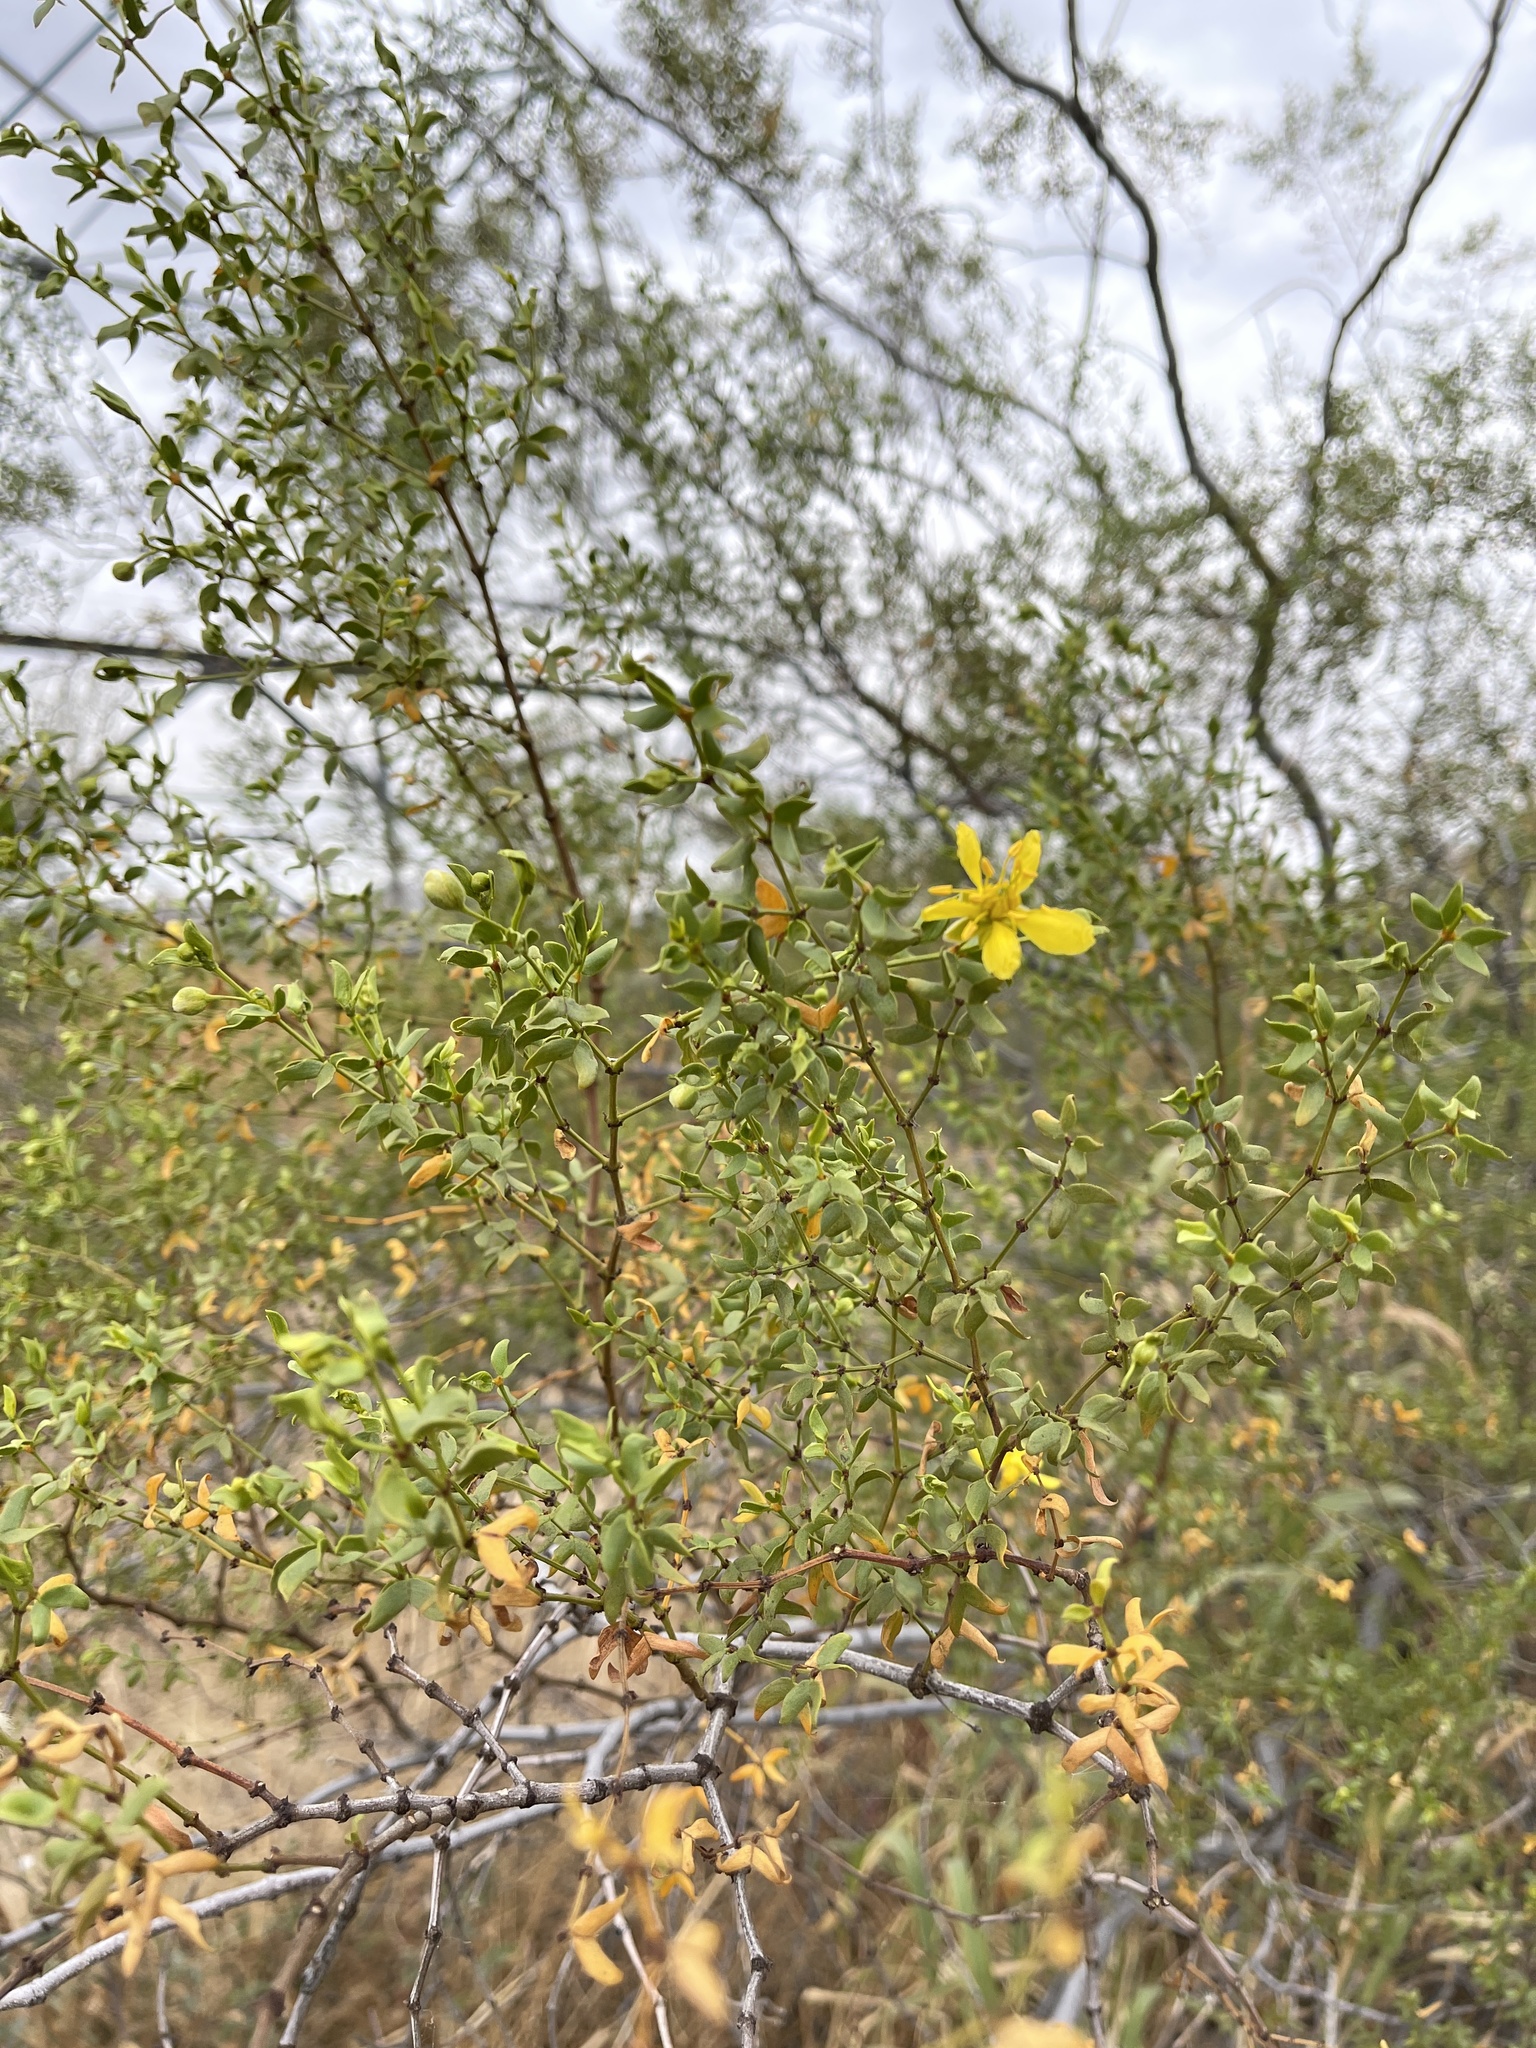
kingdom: Plantae
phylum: Tracheophyta
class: Magnoliopsida
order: Zygophyllales
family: Zygophyllaceae
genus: Larrea
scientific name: Larrea tridentata
